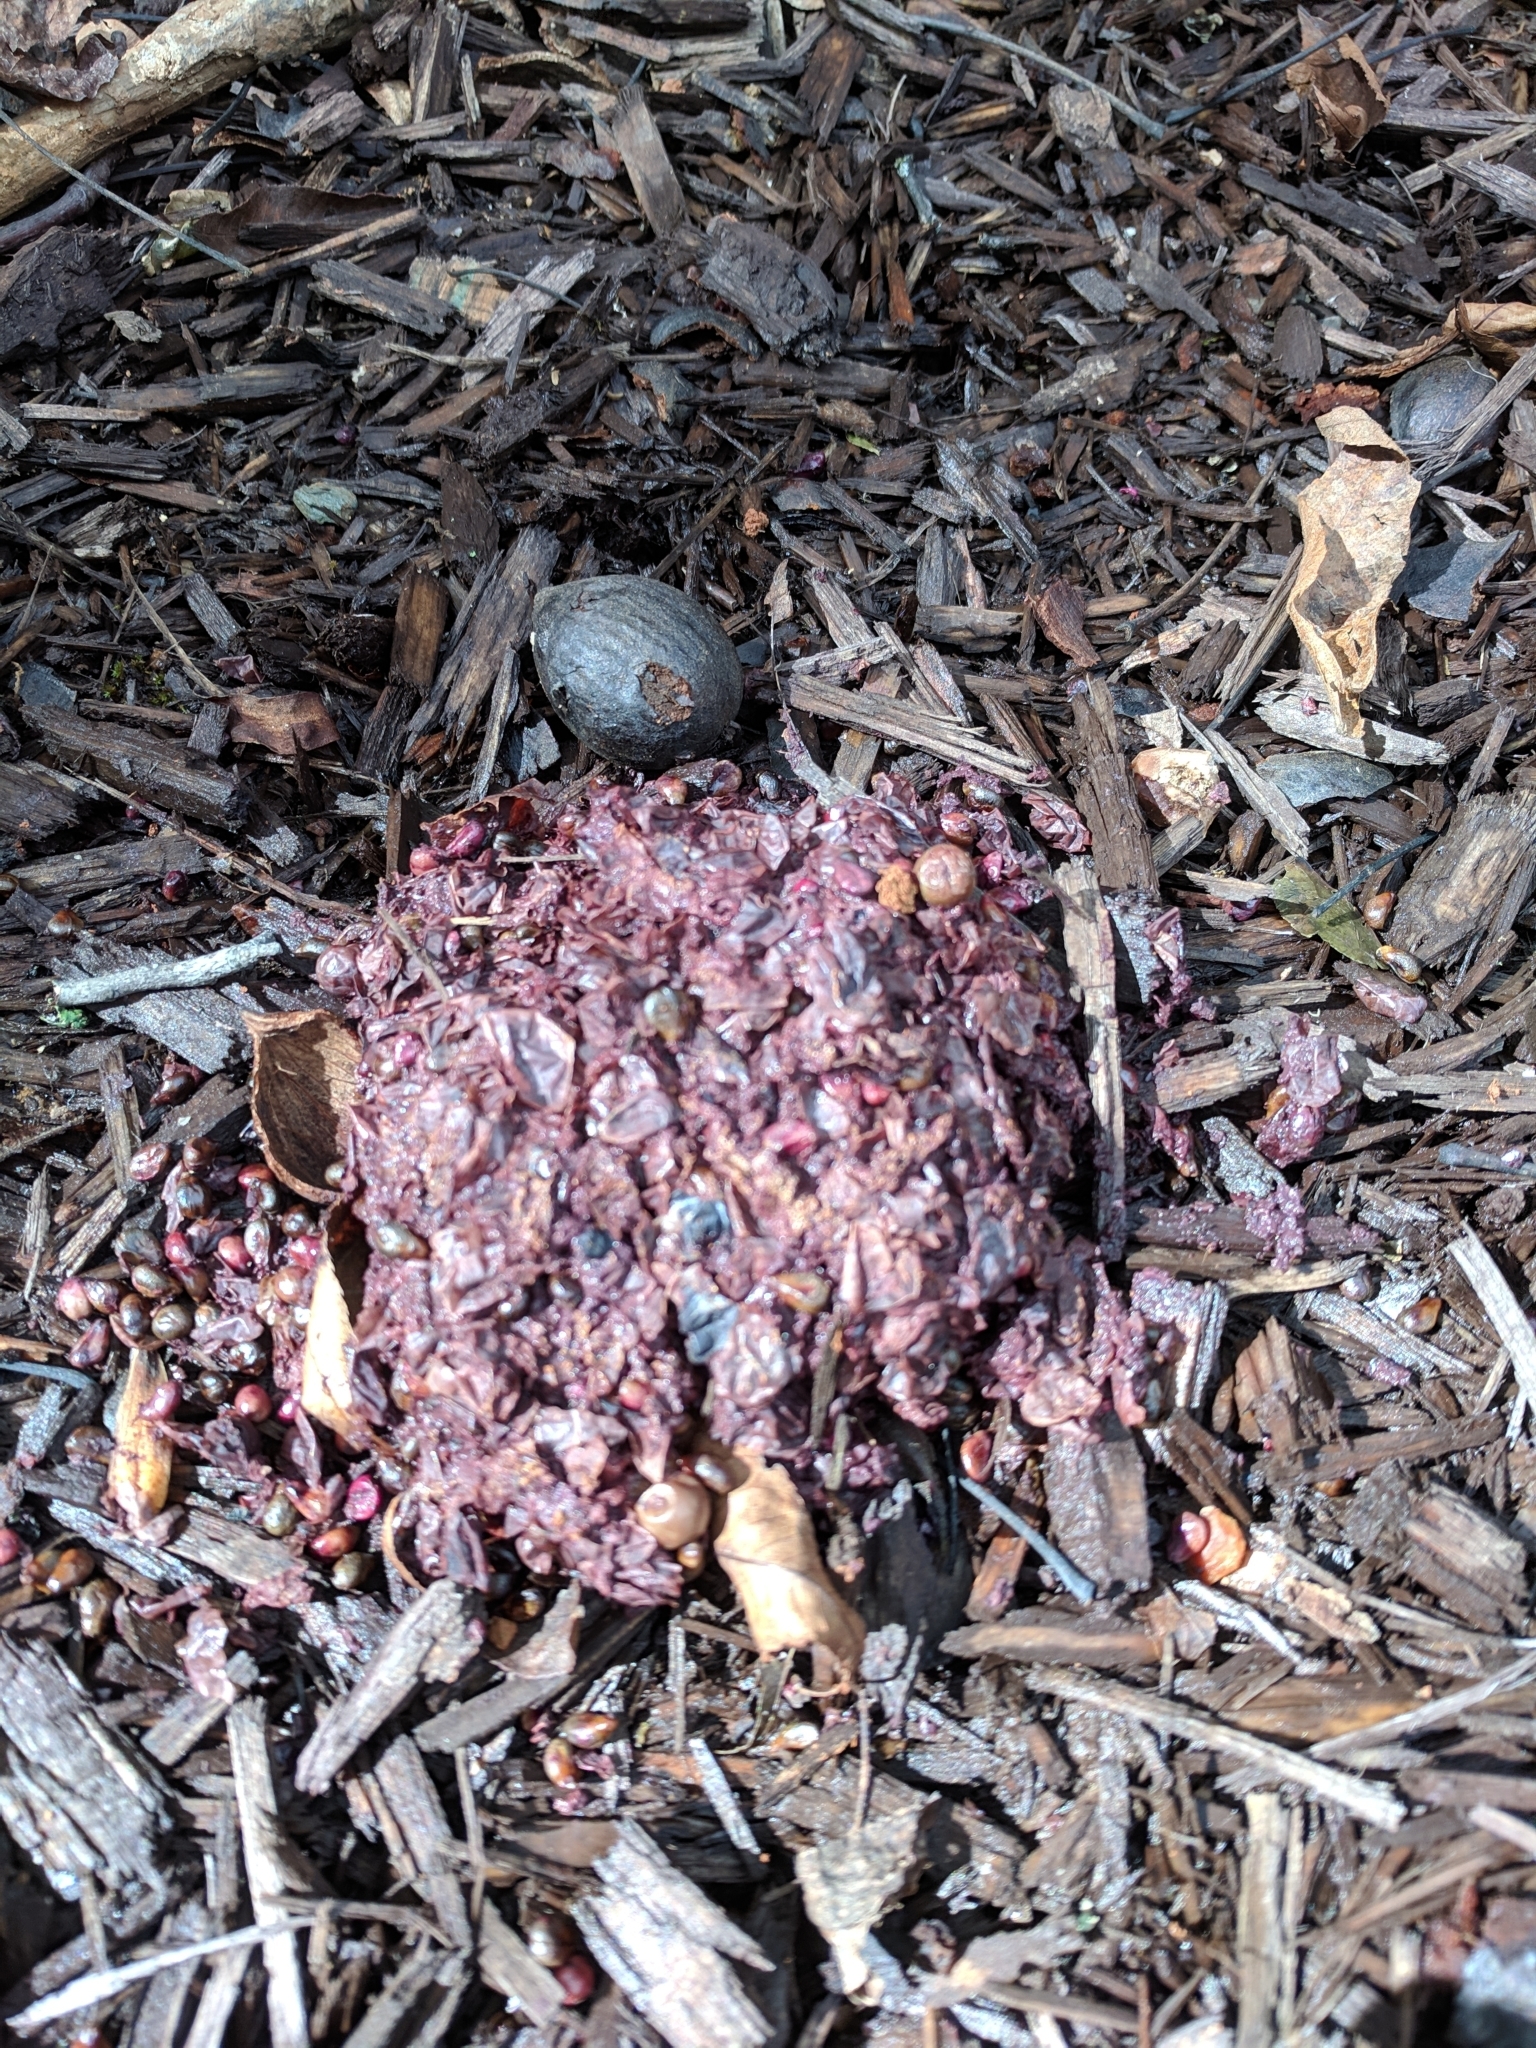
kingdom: Animalia
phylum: Chordata
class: Mammalia
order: Carnivora
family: Ursidae
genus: Ursus
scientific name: Ursus americanus
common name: American black bear
